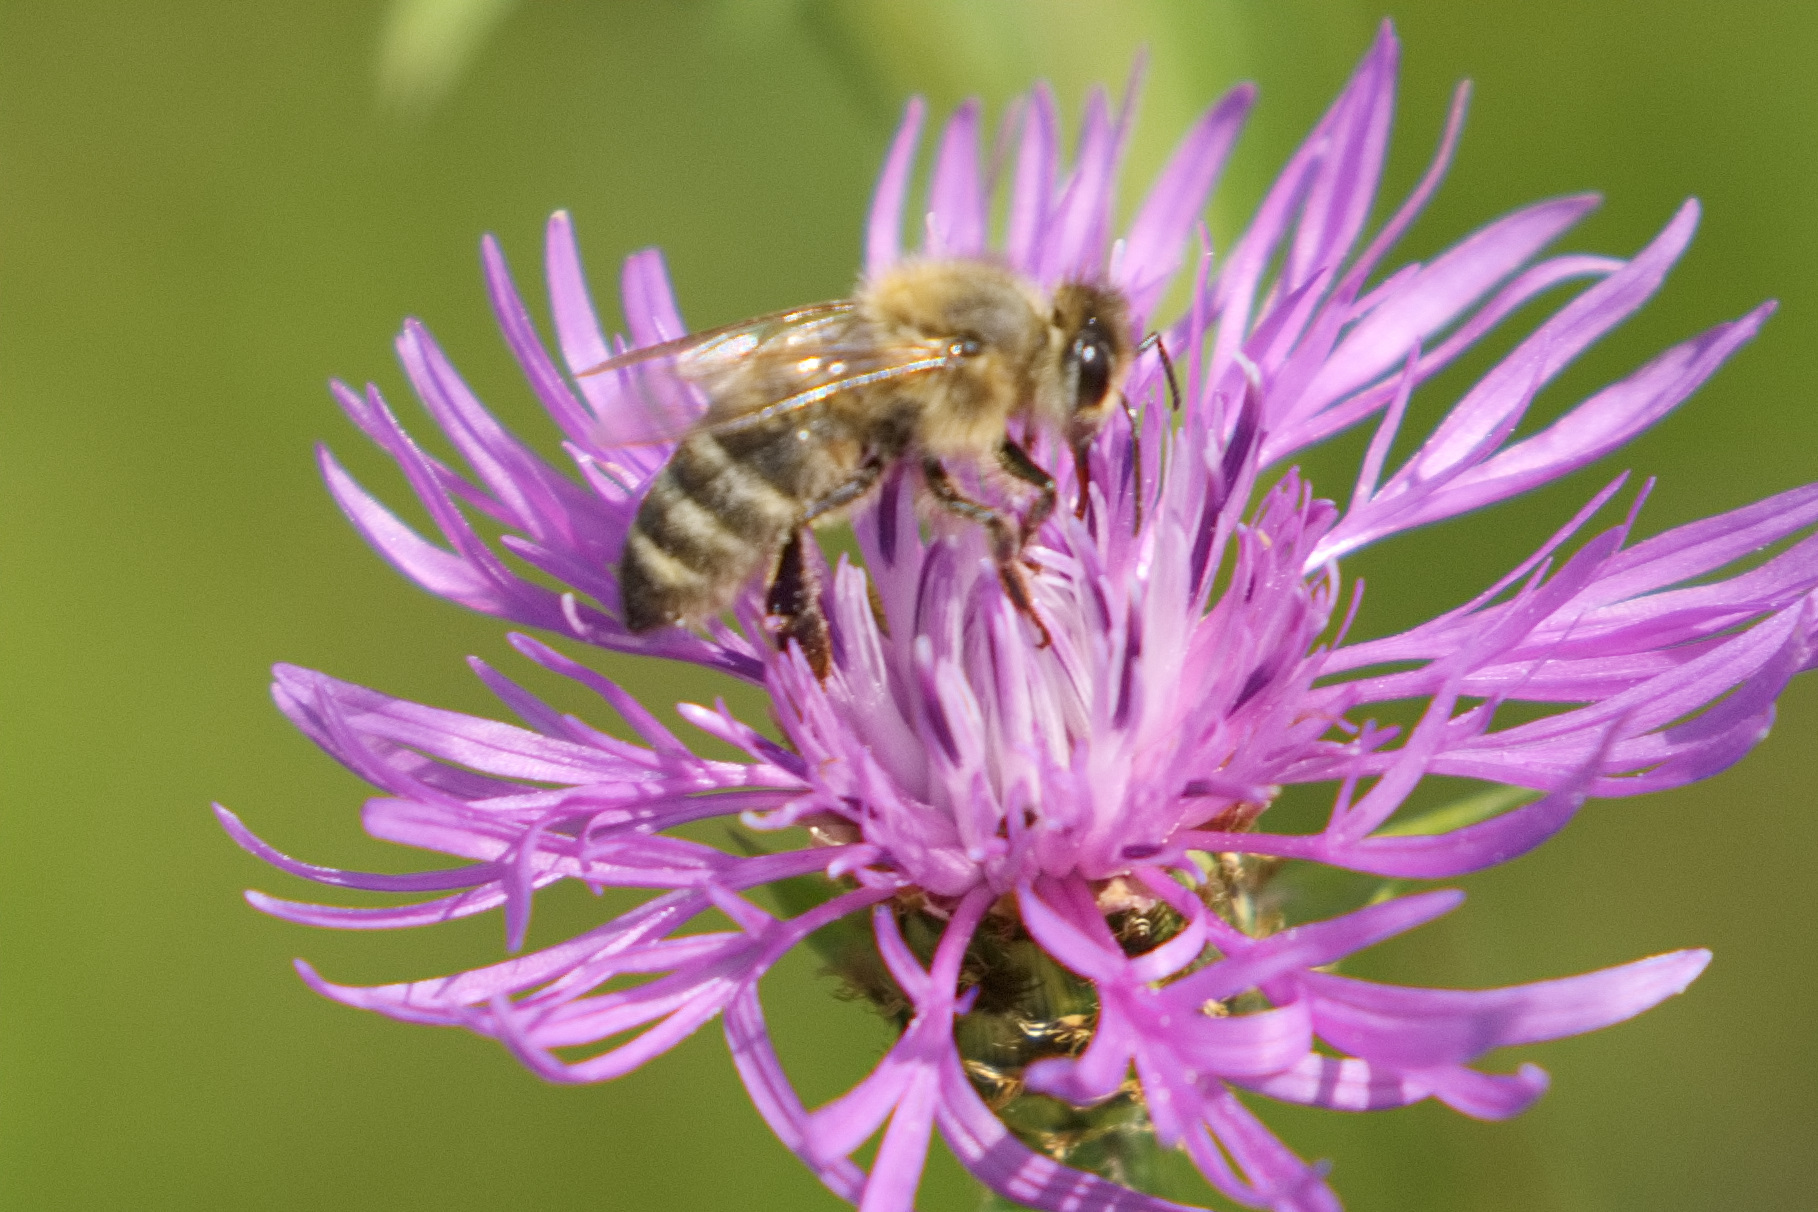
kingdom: Animalia
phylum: Arthropoda
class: Insecta
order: Hymenoptera
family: Apidae
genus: Apis
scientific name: Apis mellifera
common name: Honey bee
